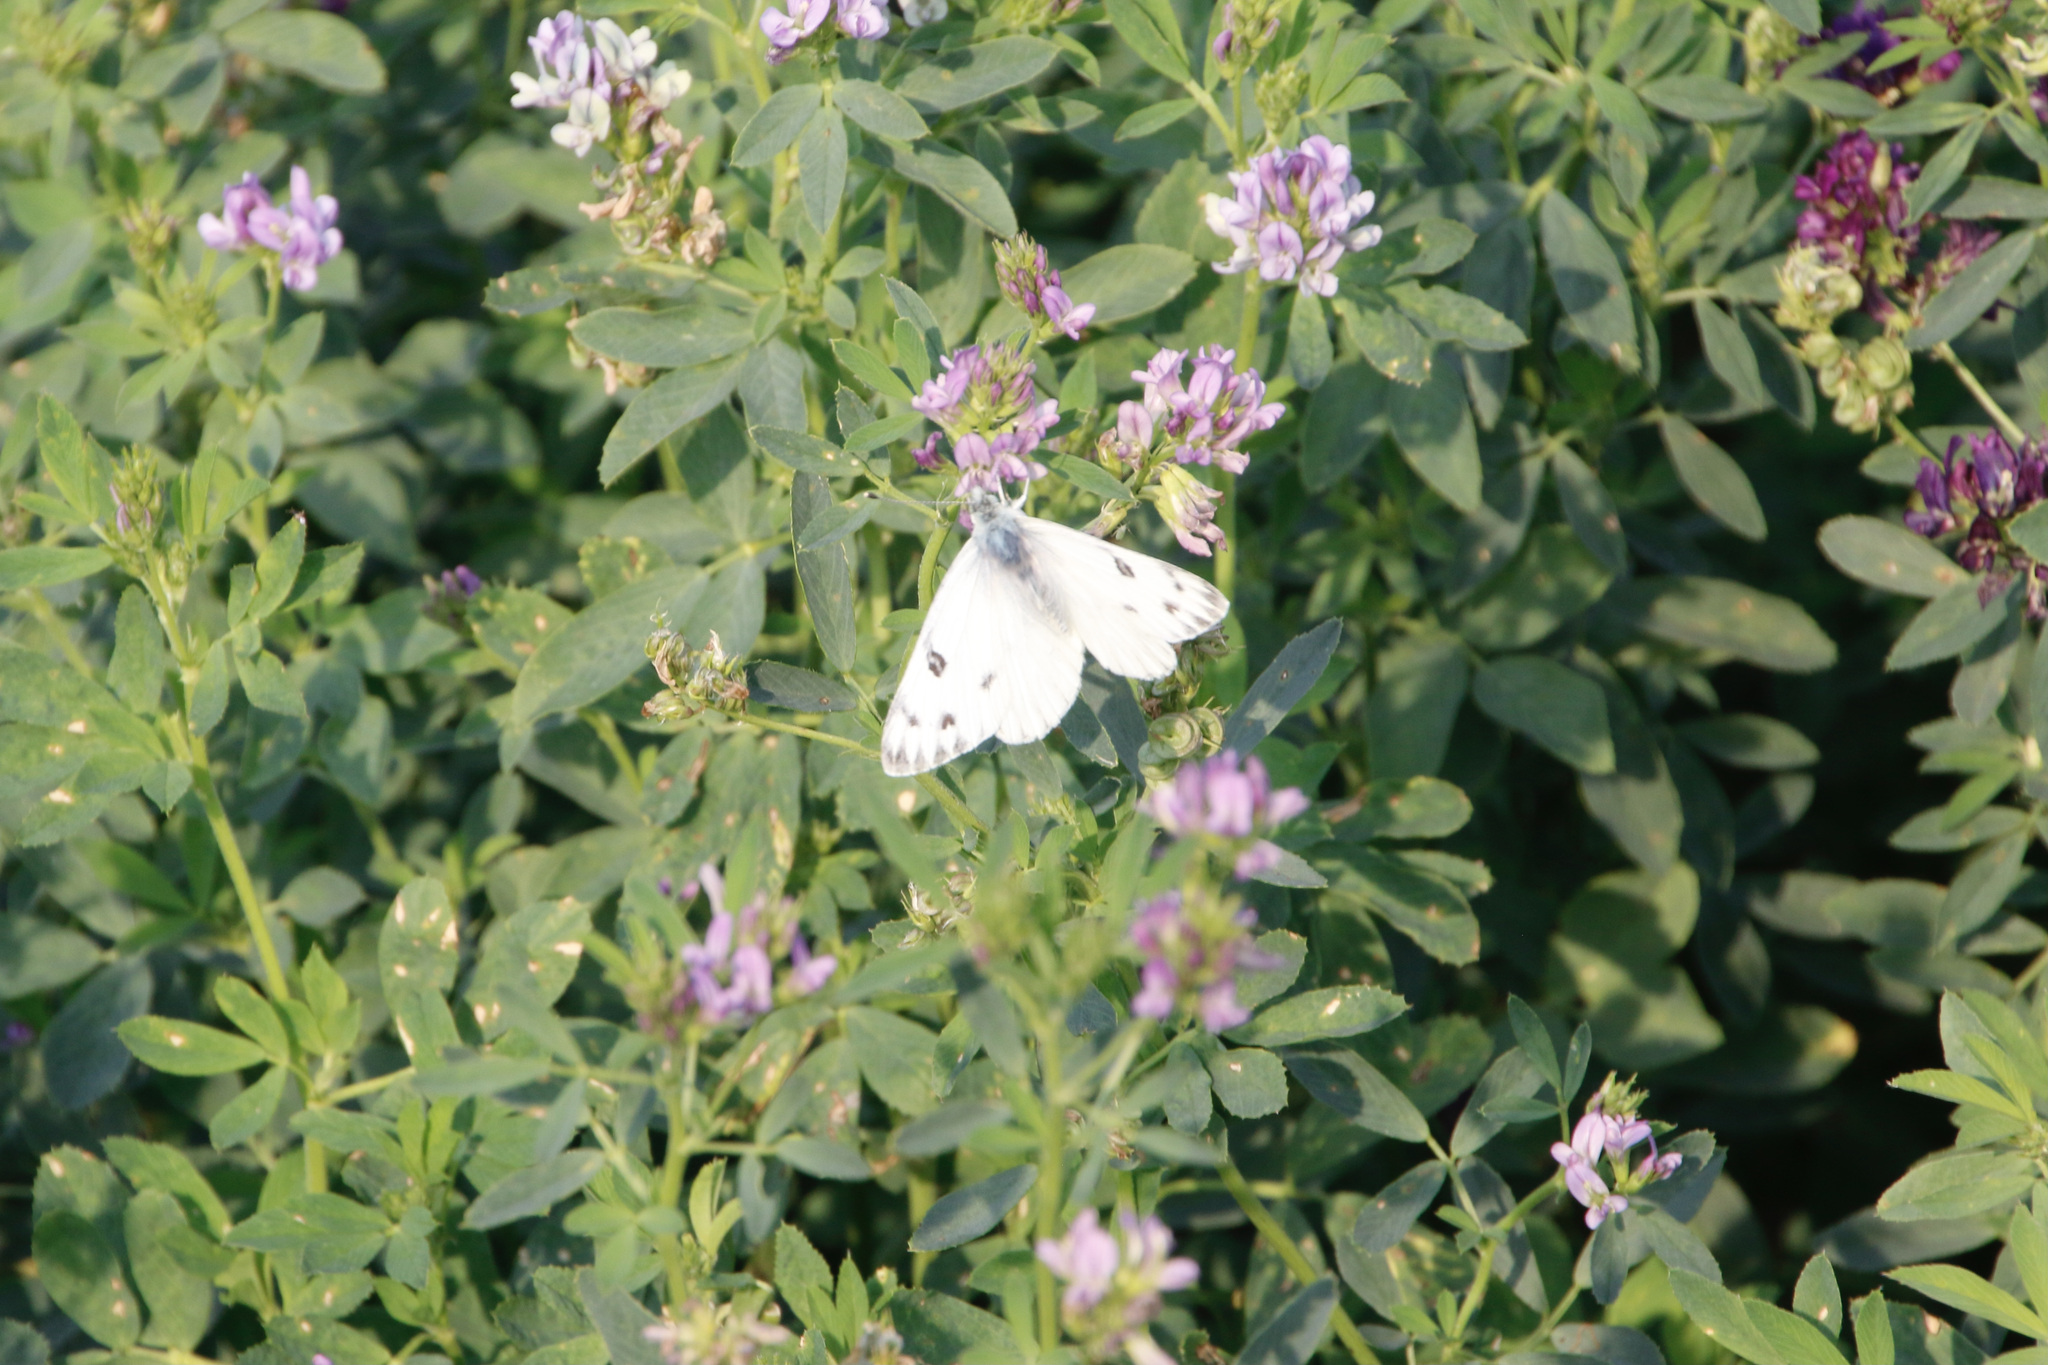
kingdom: Animalia
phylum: Arthropoda
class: Insecta
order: Lepidoptera
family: Pieridae
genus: Pontia
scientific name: Pontia occidentalis
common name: Western white
